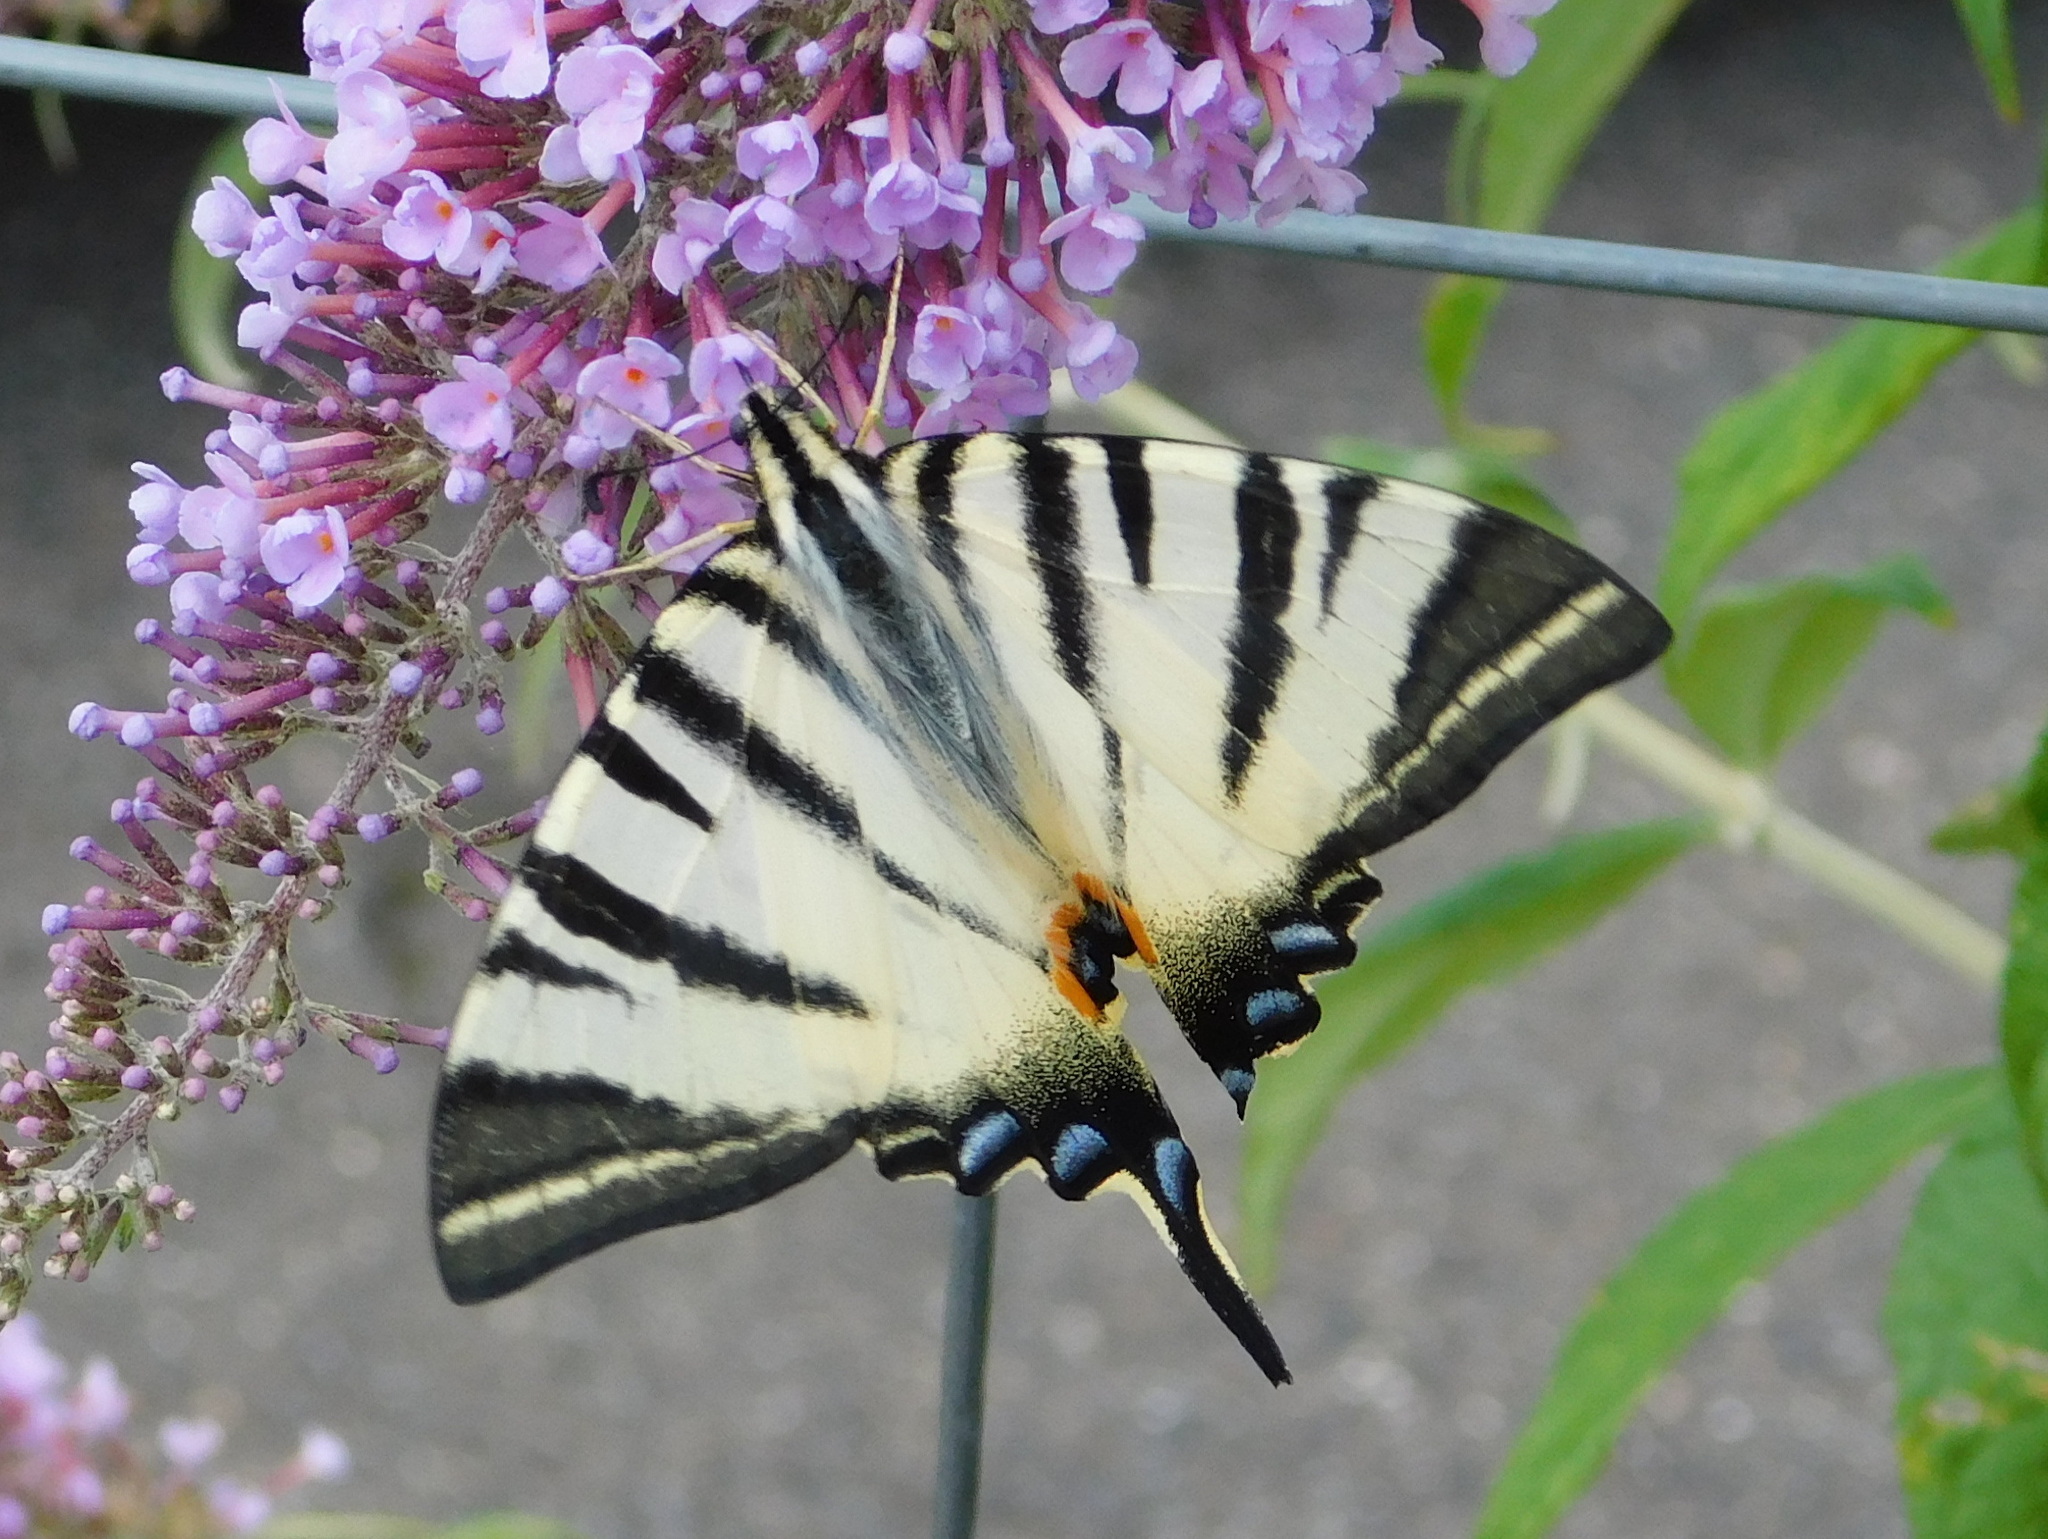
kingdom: Animalia
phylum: Arthropoda
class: Insecta
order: Lepidoptera
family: Papilionidae
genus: Iphiclides
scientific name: Iphiclides podalirius
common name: Scarce swallowtail
